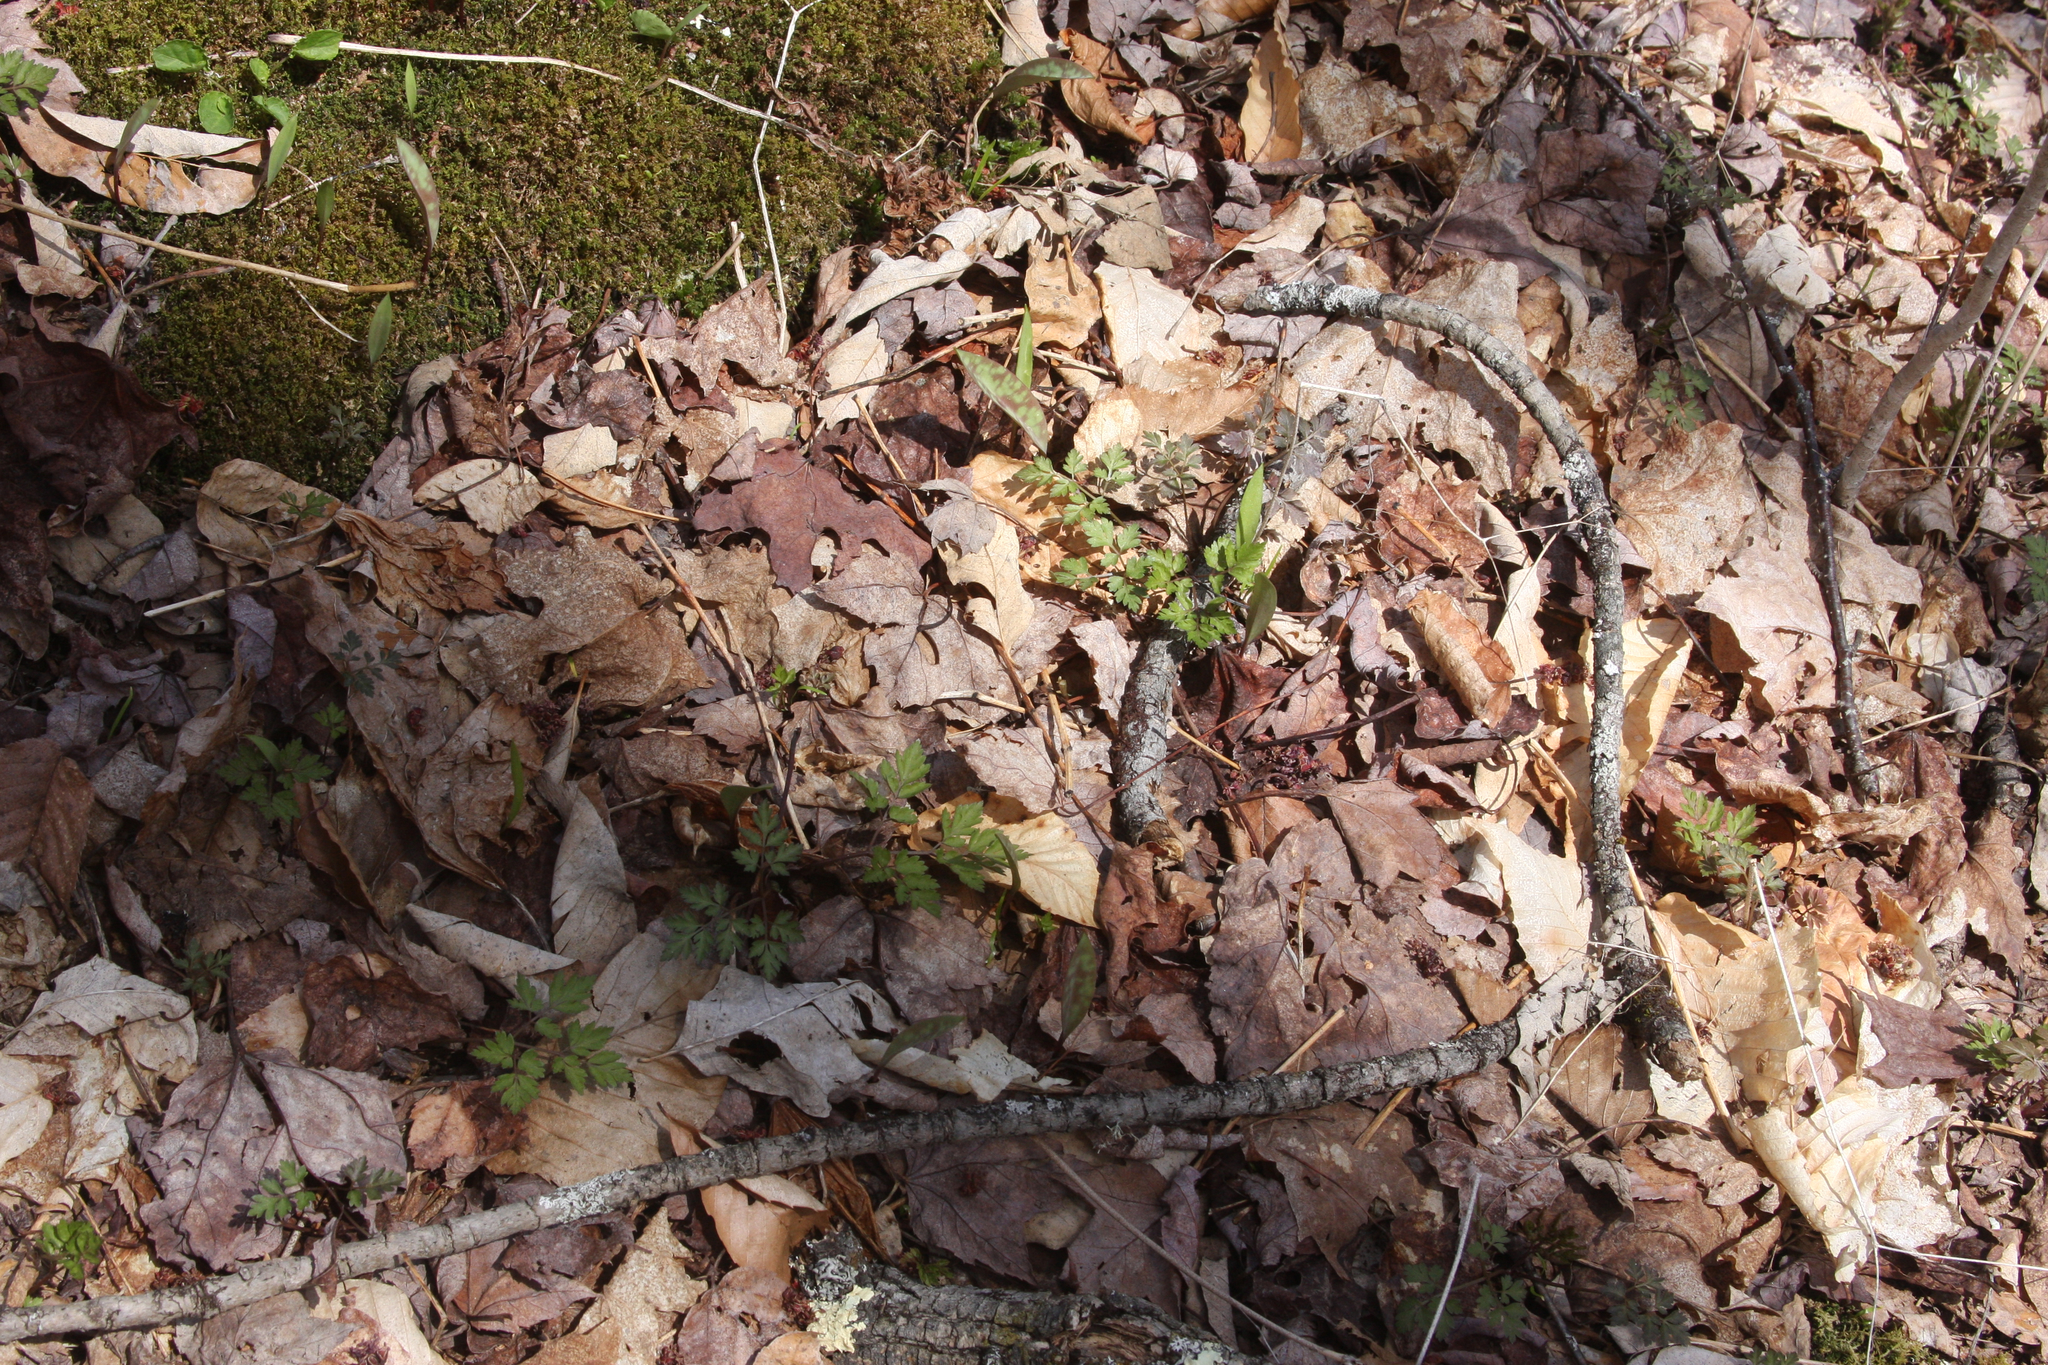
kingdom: Plantae
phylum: Tracheophyta
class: Magnoliopsida
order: Geraniales
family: Geraniaceae
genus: Geranium
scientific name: Geranium robertianum
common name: Herb-robert
